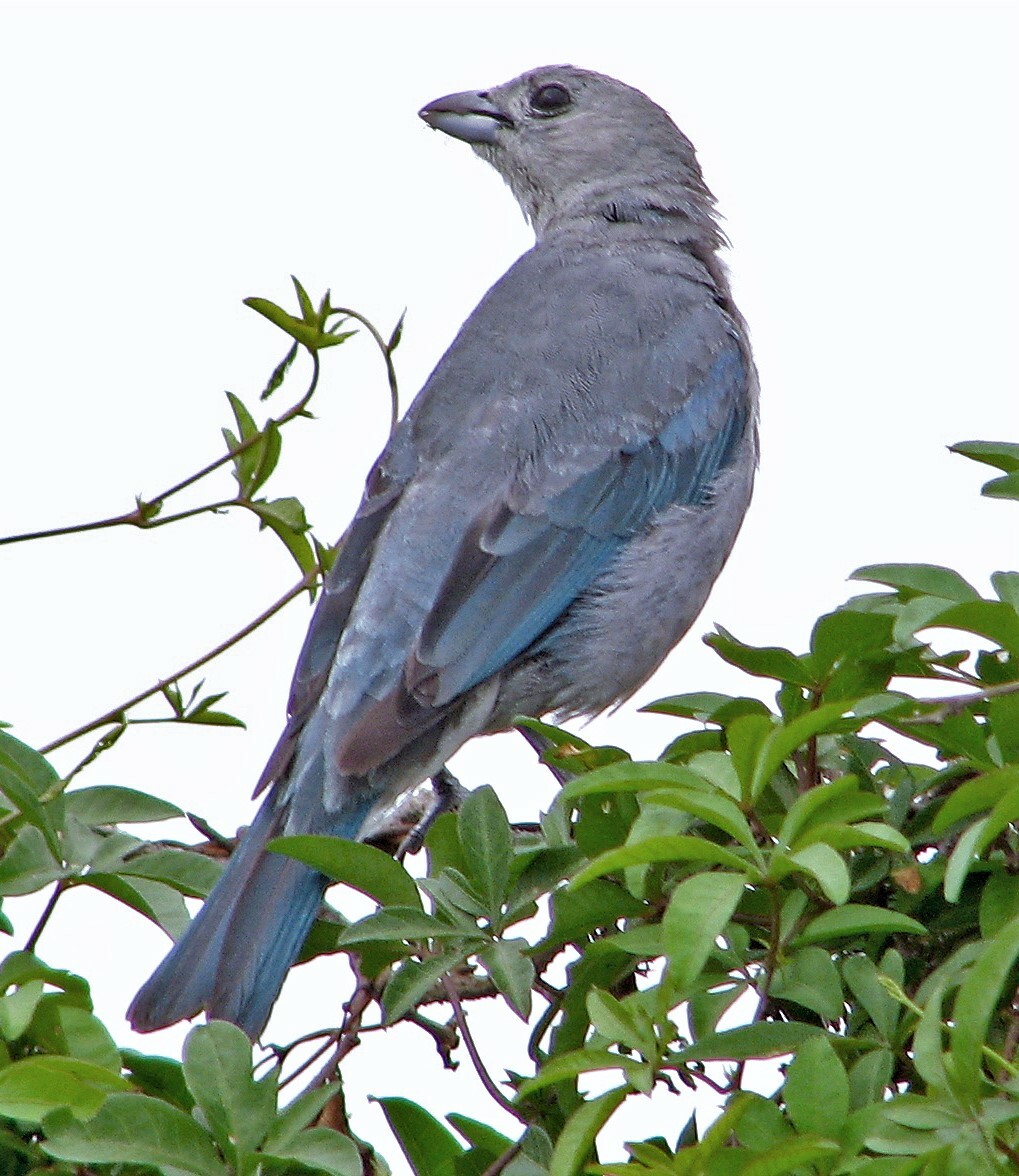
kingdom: Animalia
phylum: Chordata
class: Aves
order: Passeriformes
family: Thraupidae
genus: Thraupis
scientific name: Thraupis sayaca
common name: Sayaca tanager
